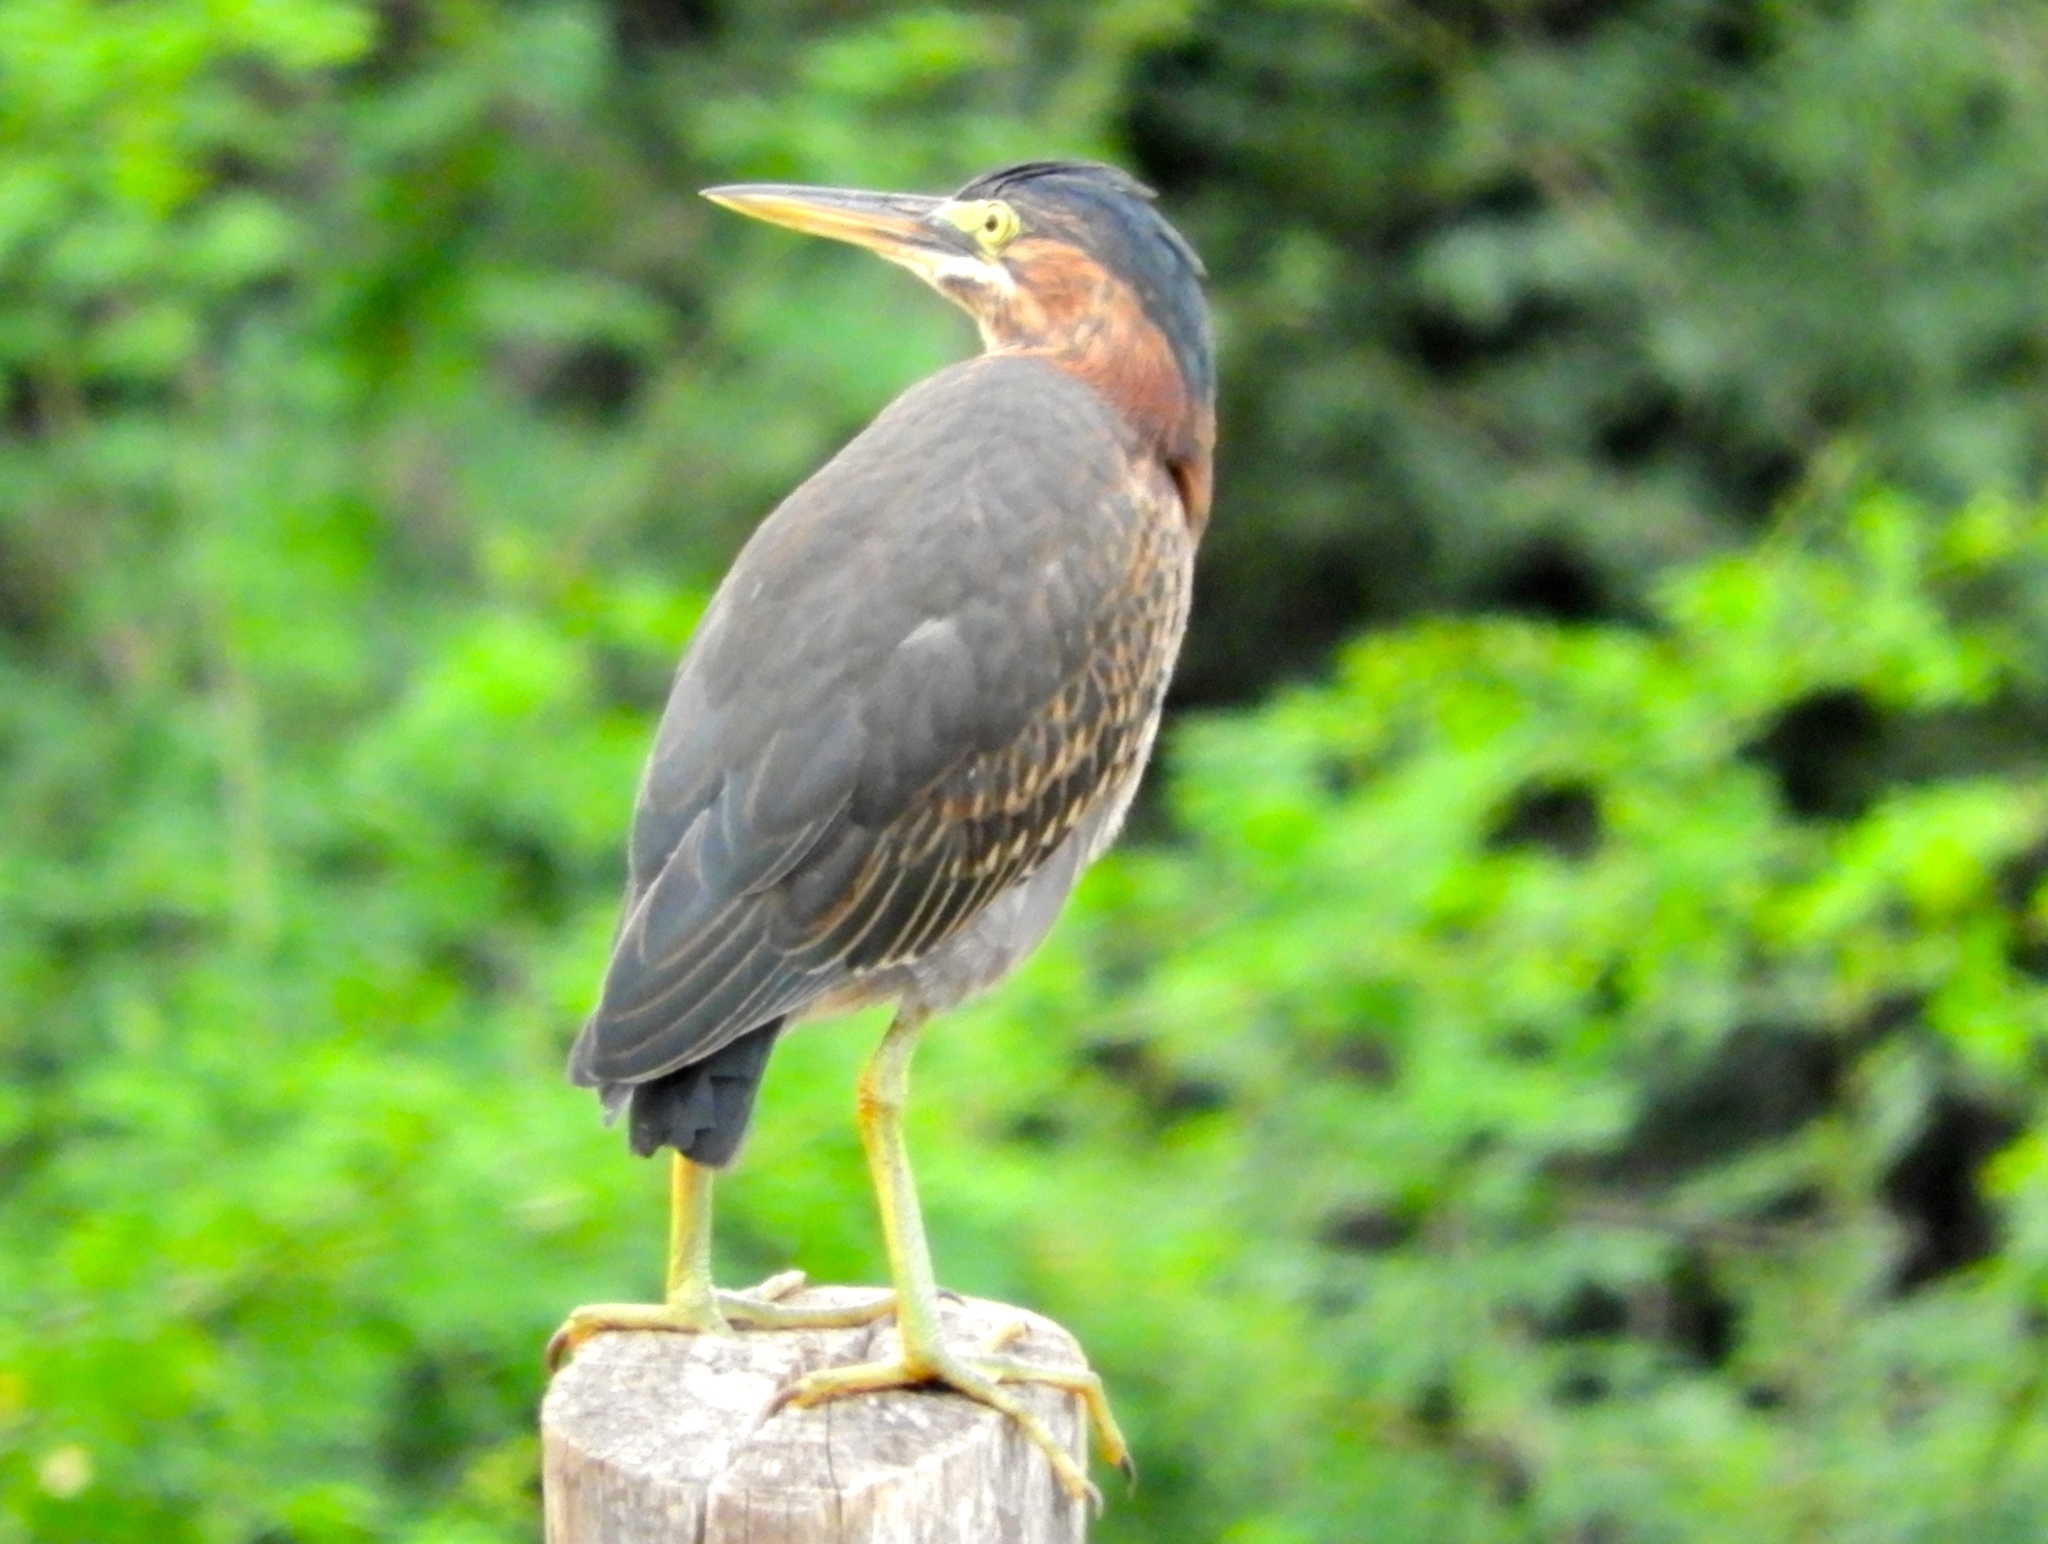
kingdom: Animalia
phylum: Chordata
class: Aves
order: Pelecaniformes
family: Ardeidae
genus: Butorides
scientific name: Butorides virescens
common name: Green heron
